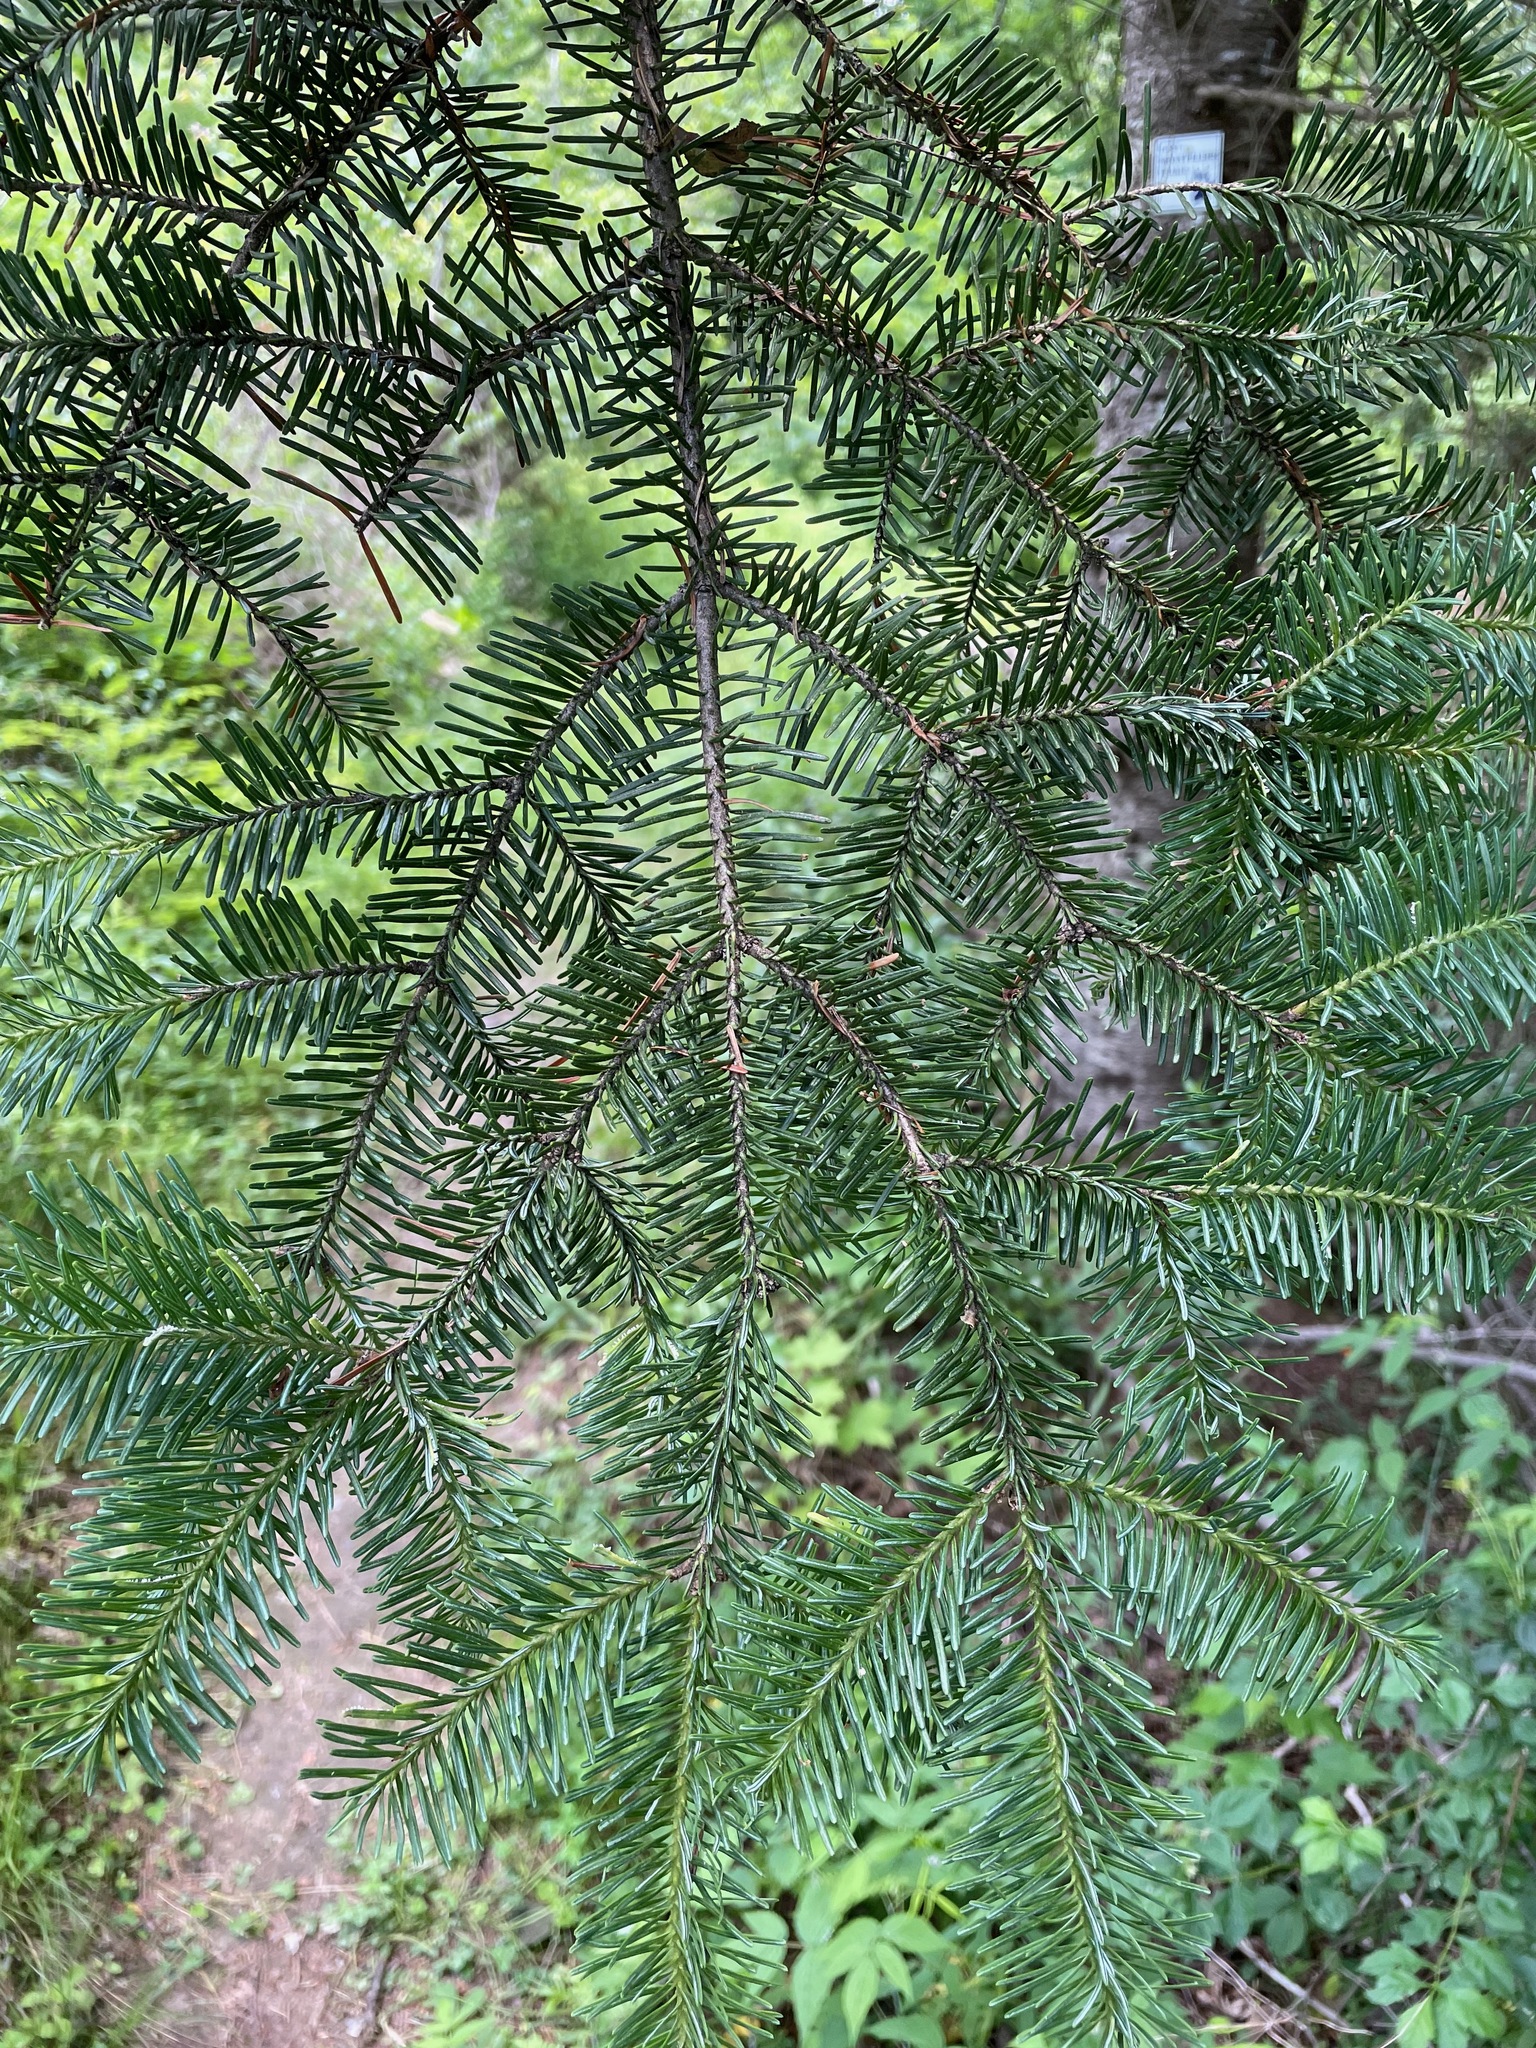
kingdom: Plantae
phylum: Tracheophyta
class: Pinopsida
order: Pinales
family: Pinaceae
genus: Abies
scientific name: Abies balsamea
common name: Balsam fir
